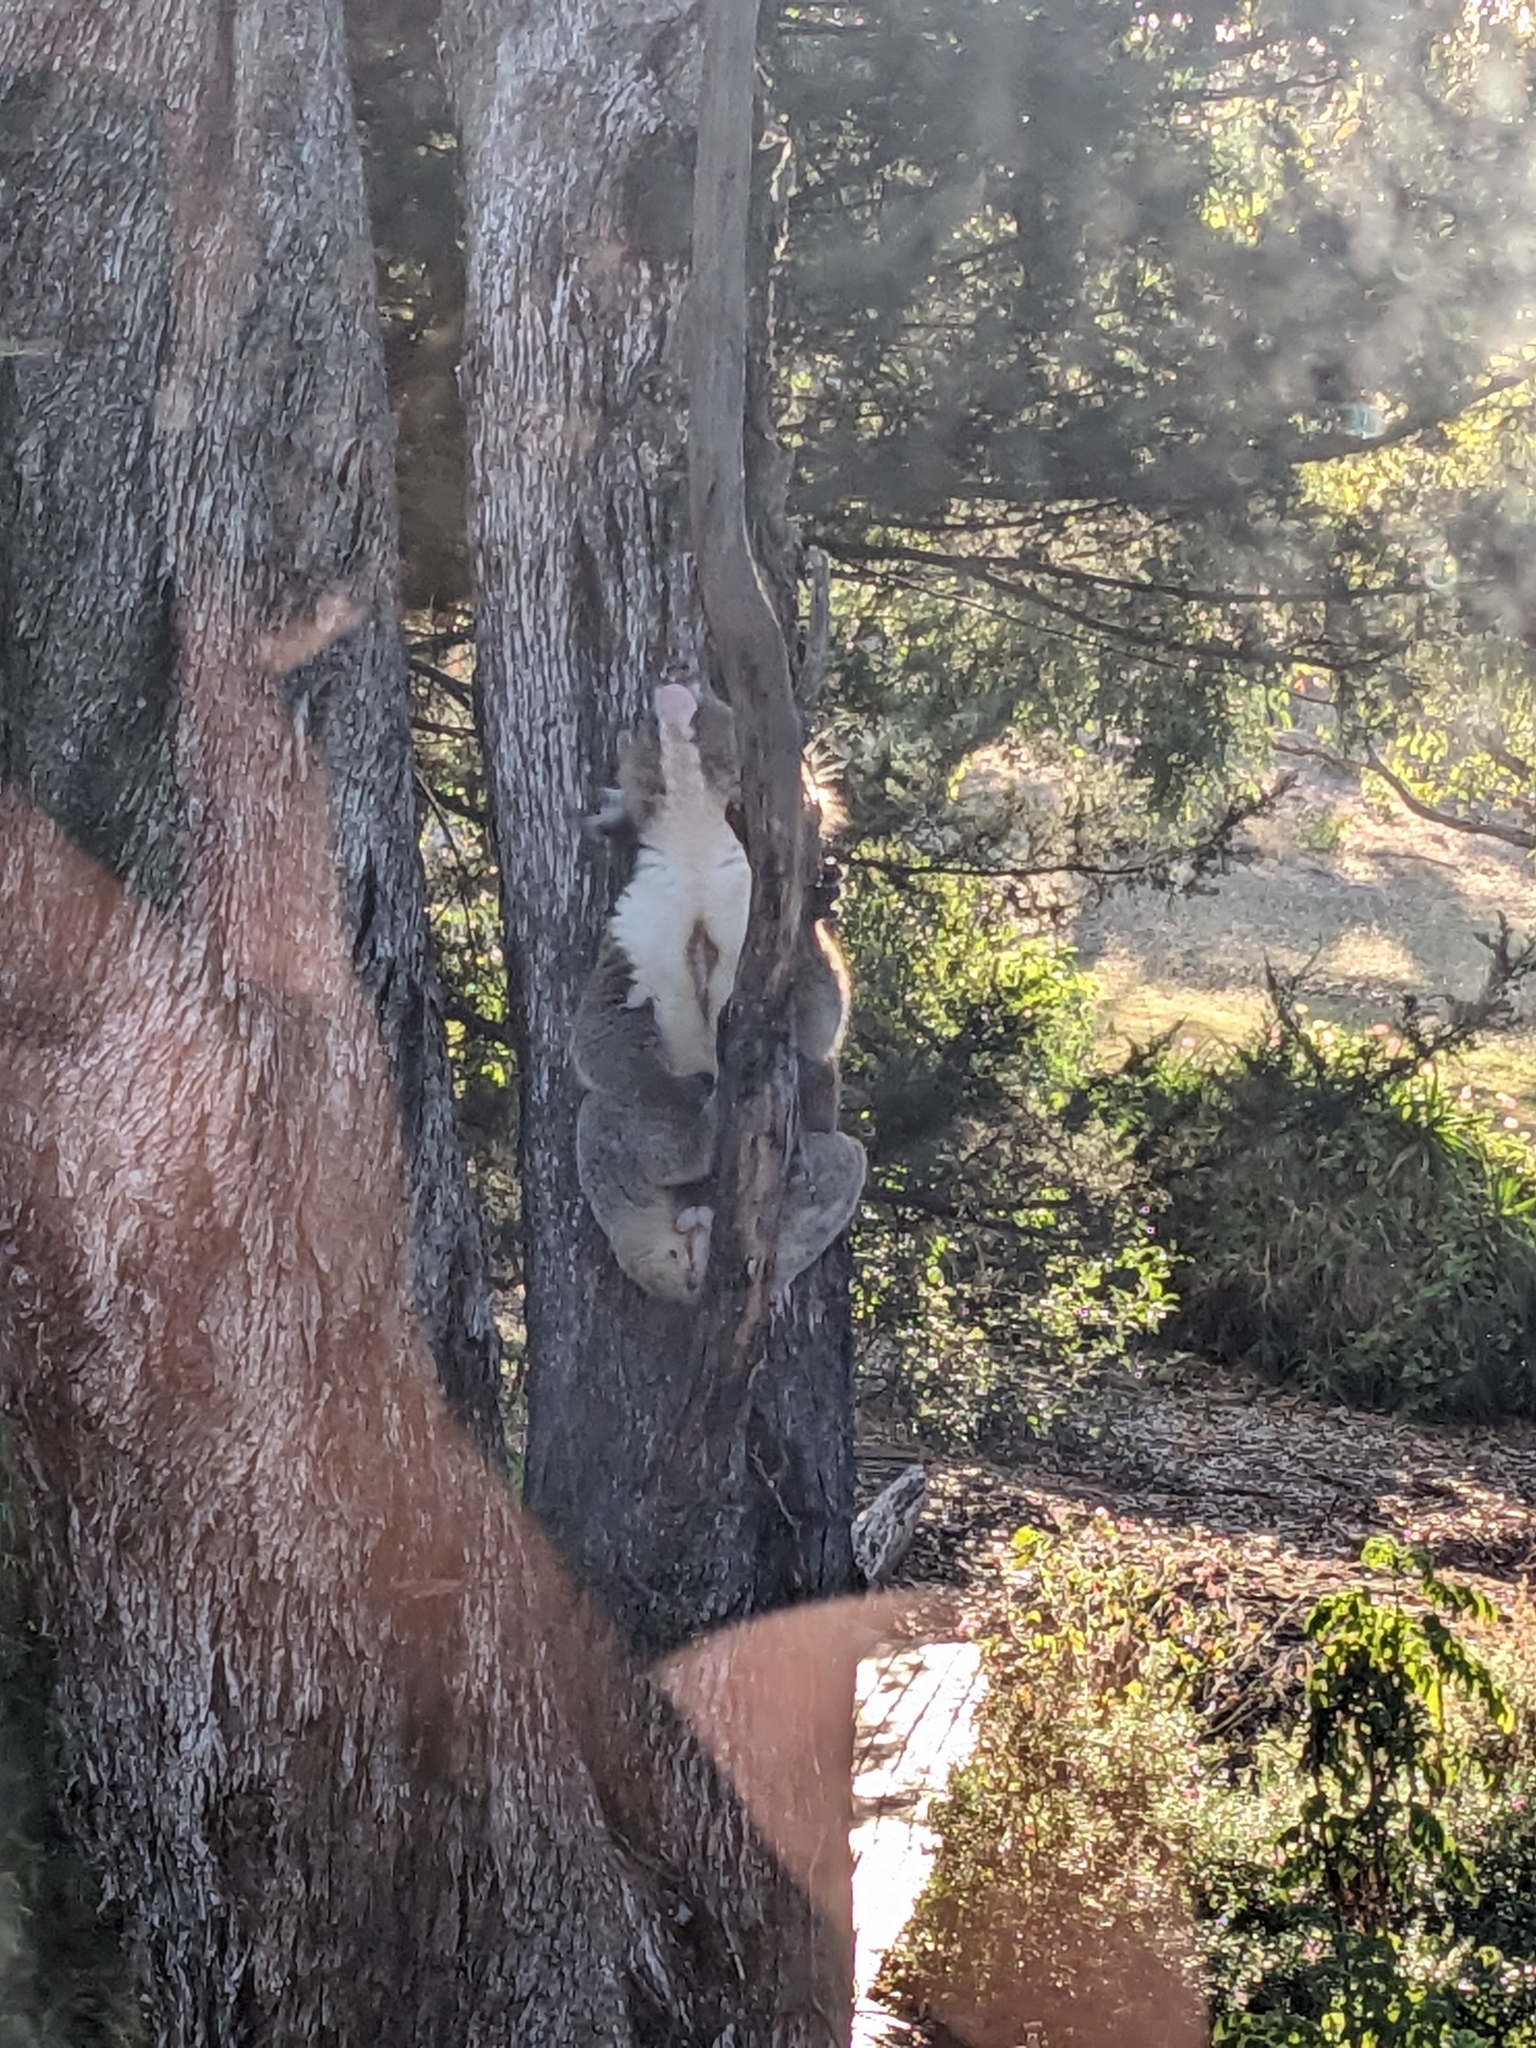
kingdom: Animalia
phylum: Chordata
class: Mammalia
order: Diprotodontia
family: Phascolarctidae
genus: Phascolarctos
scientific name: Phascolarctos cinereus
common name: Koala
